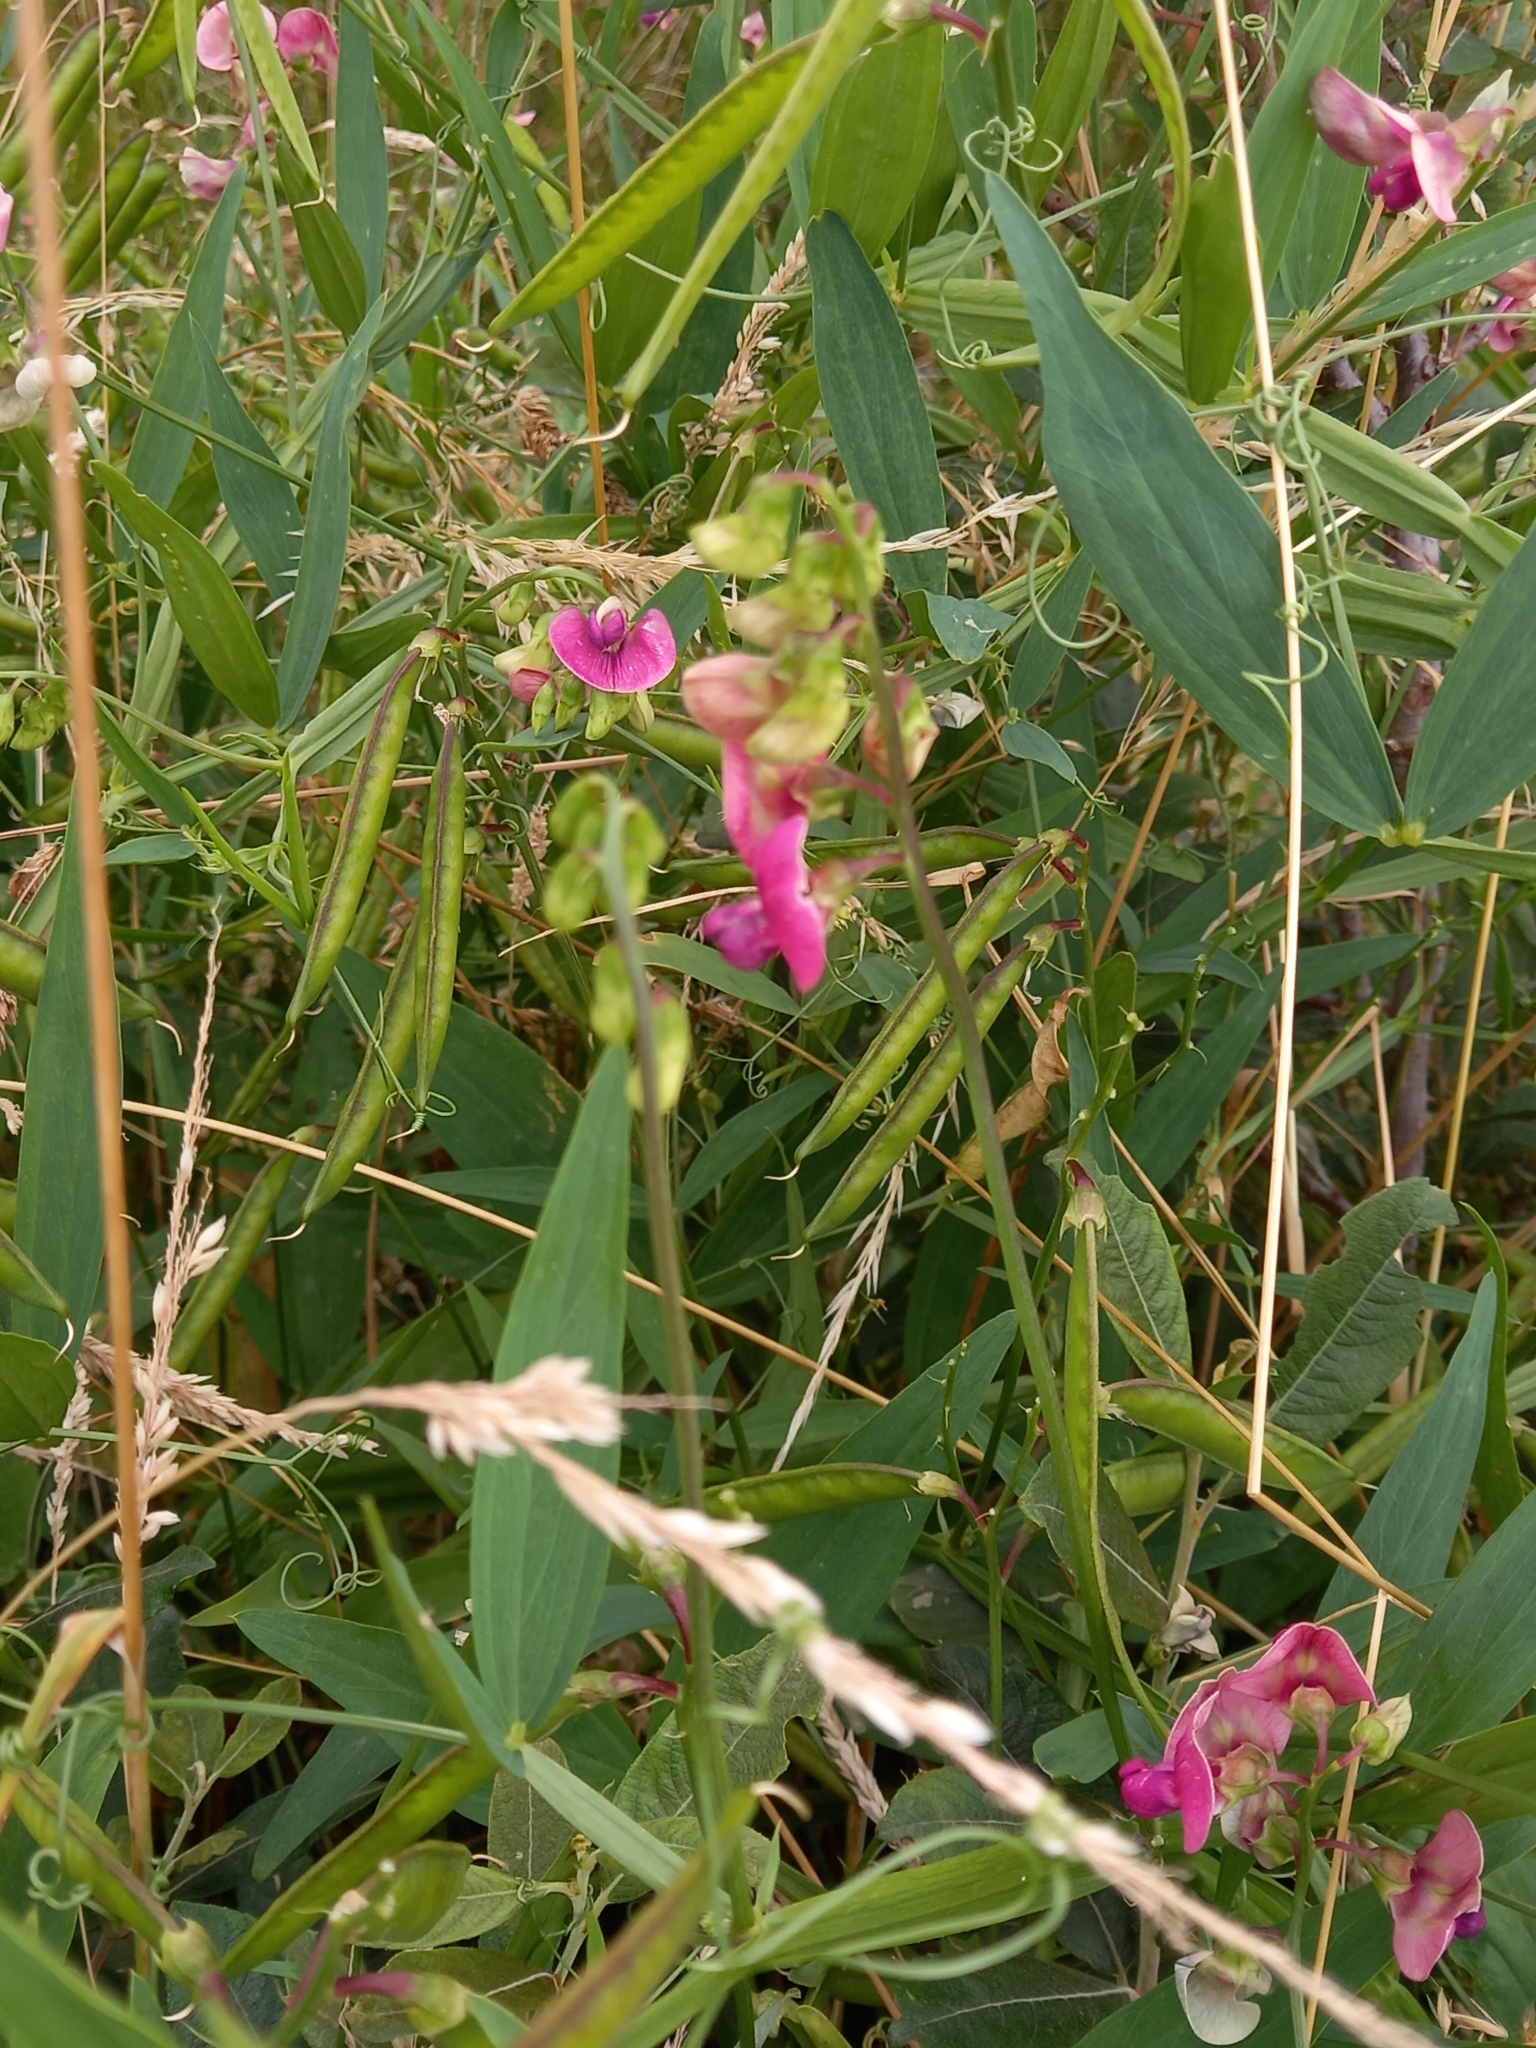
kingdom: Plantae
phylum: Tracheophyta
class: Magnoliopsida
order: Fabales
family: Fabaceae
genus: Lathyrus
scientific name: Lathyrus sylvestris
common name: Flat pea
